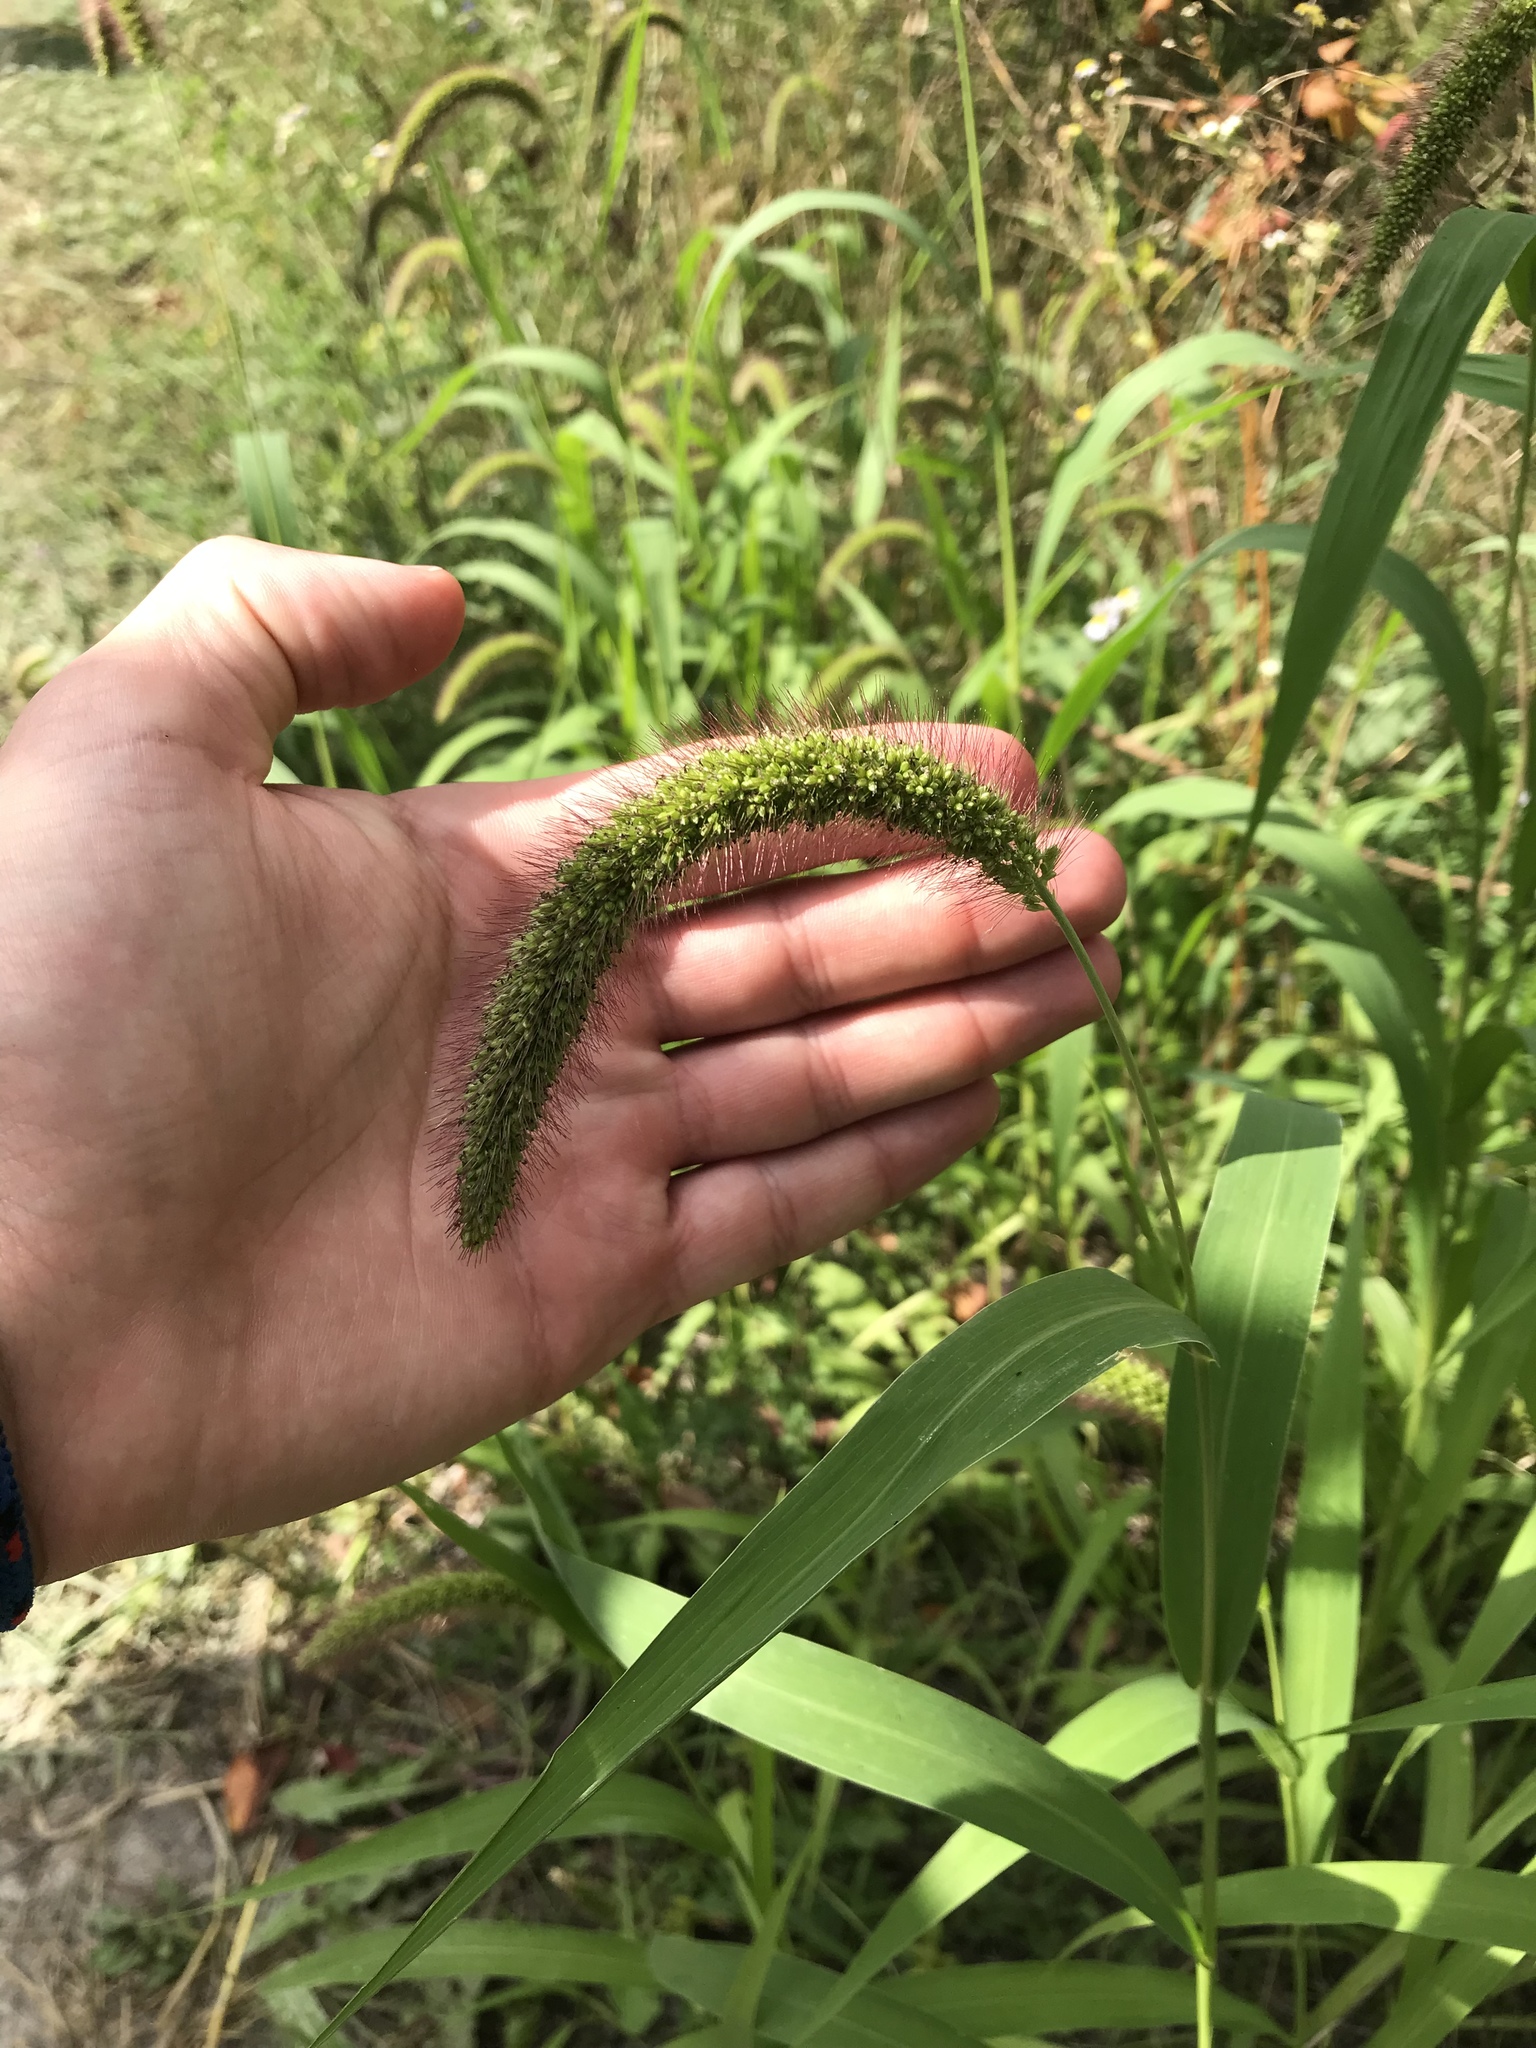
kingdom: Plantae
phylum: Tracheophyta
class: Liliopsida
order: Poales
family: Poaceae
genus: Setaria
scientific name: Setaria viridis
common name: Green bristlegrass
